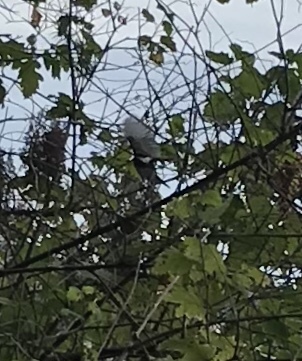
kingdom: Animalia
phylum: Chordata
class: Aves
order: Passeriformes
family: Paridae
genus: Poecile
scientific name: Poecile rufescens
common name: Chestnut-backed chickadee
